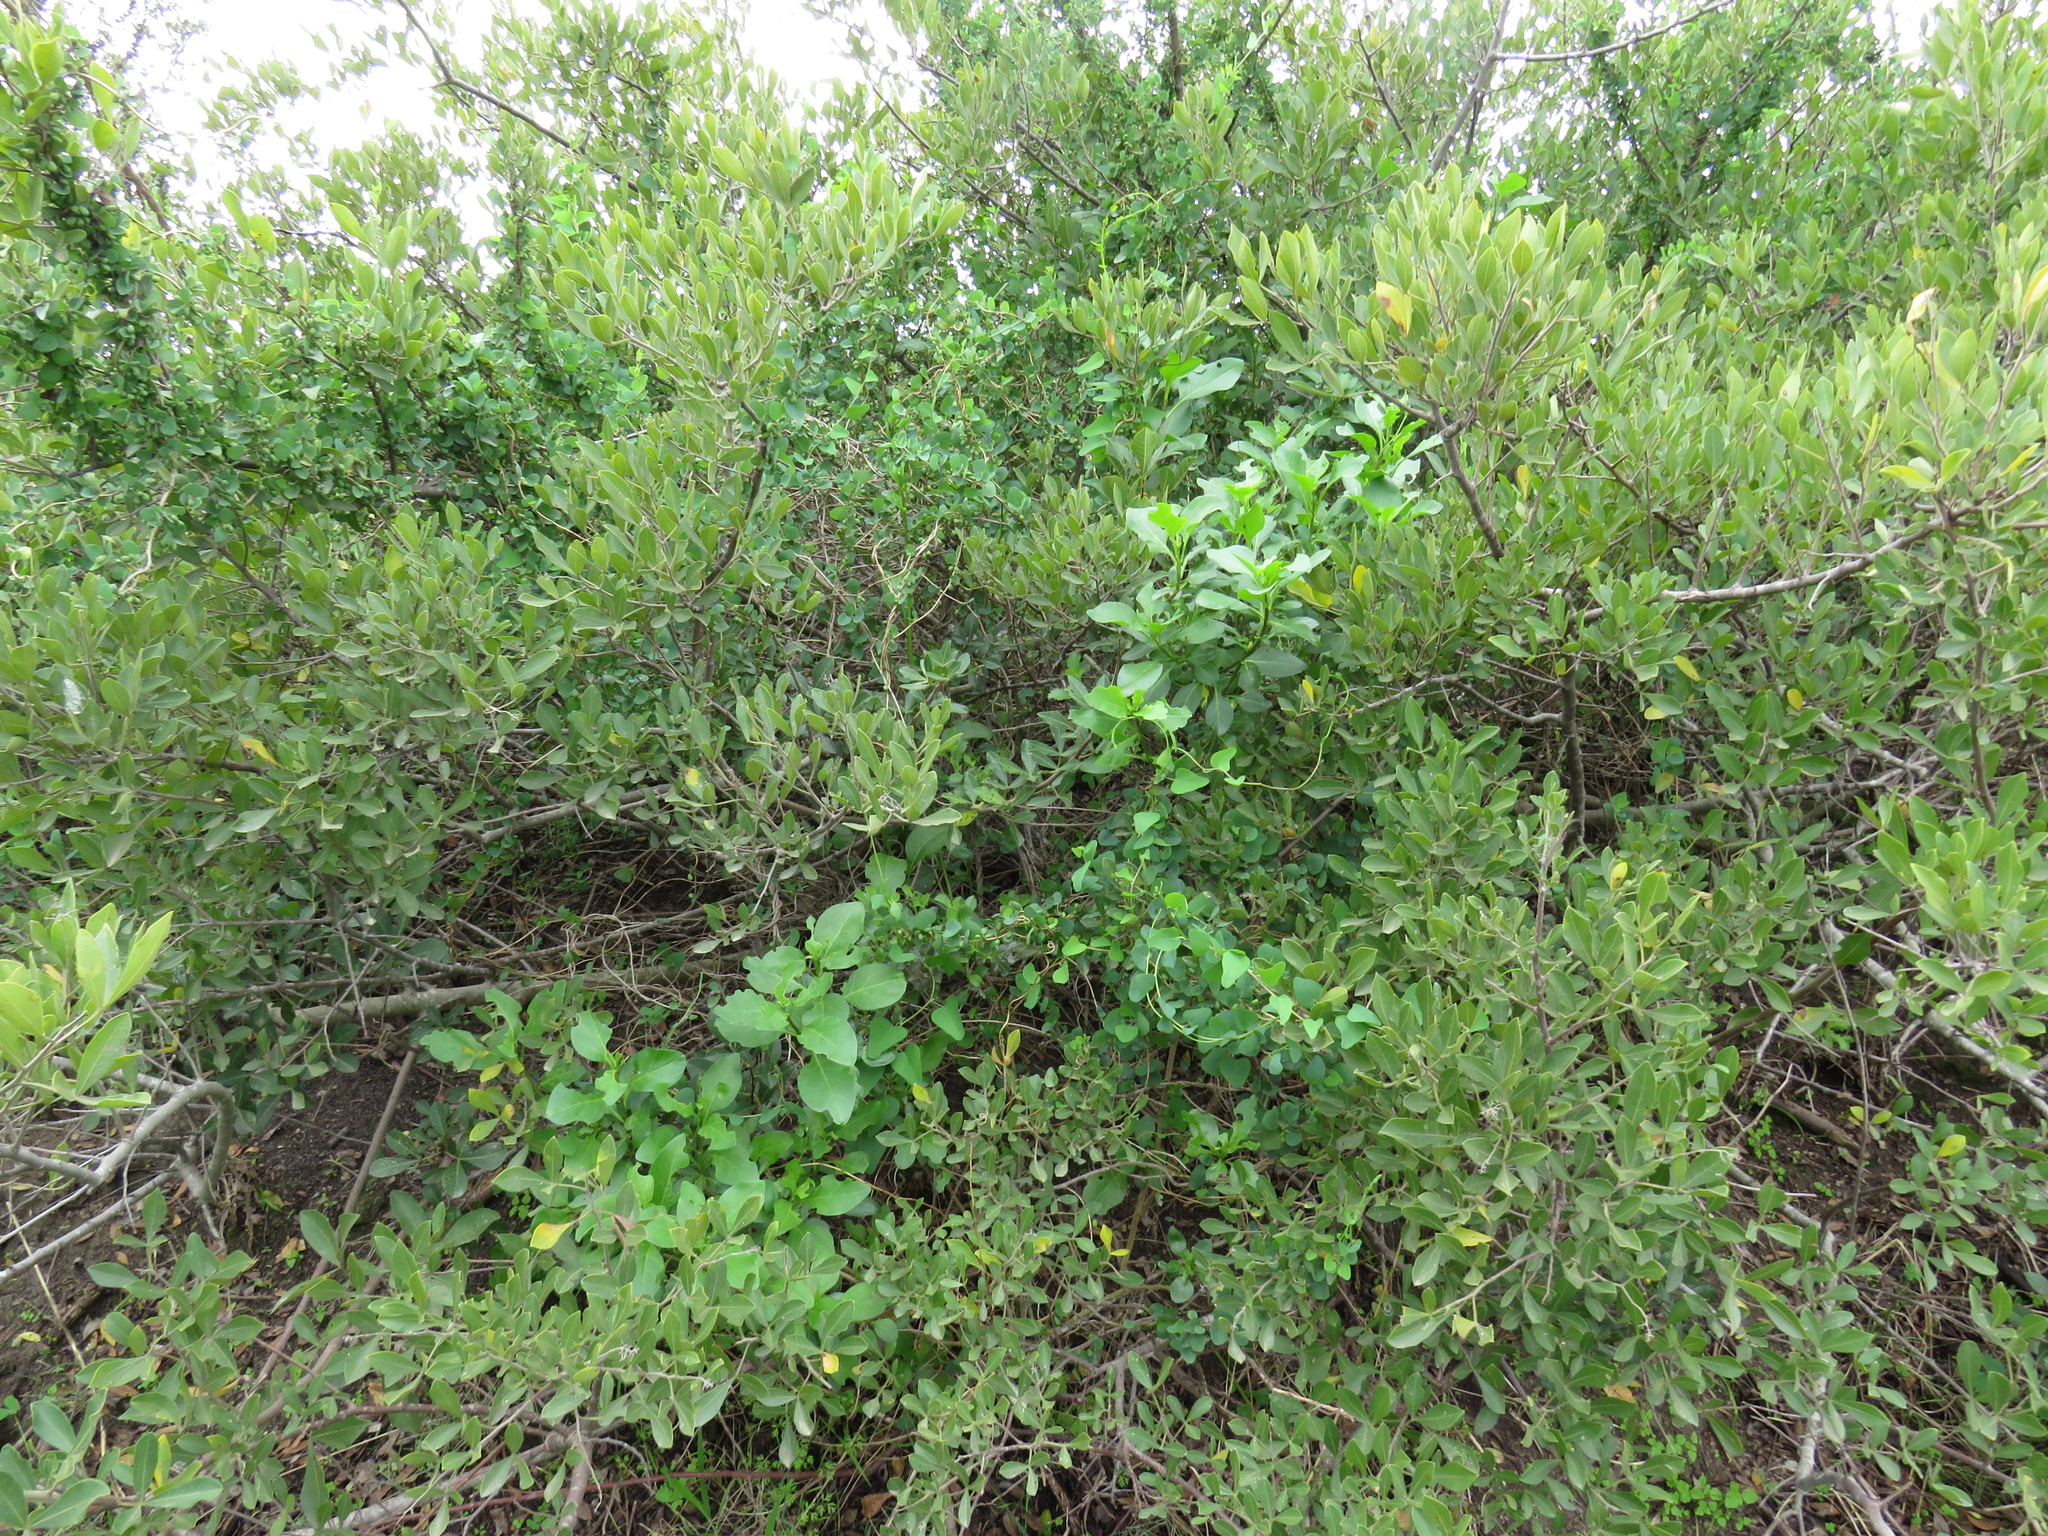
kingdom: Plantae
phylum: Tracheophyta
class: Magnoliopsida
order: Solanales
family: Solanaceae
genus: Solanum
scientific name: Solanum guineense
